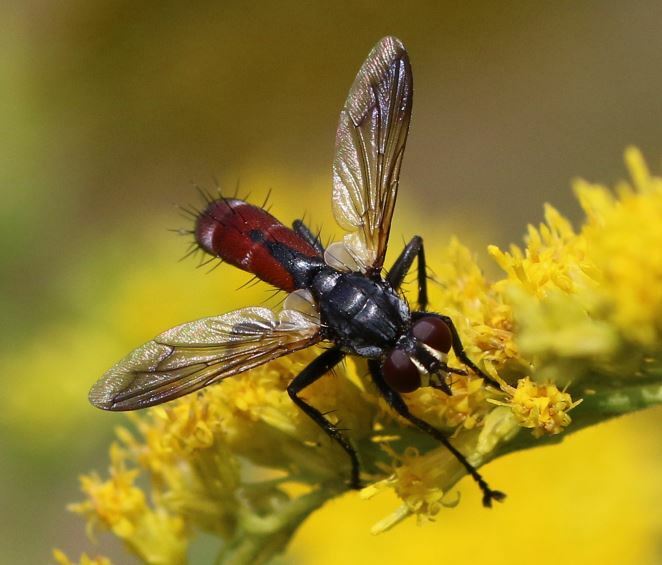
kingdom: Animalia
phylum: Arthropoda
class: Insecta
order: Diptera
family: Tachinidae
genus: Cylindromyia
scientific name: Cylindromyia bicolor
